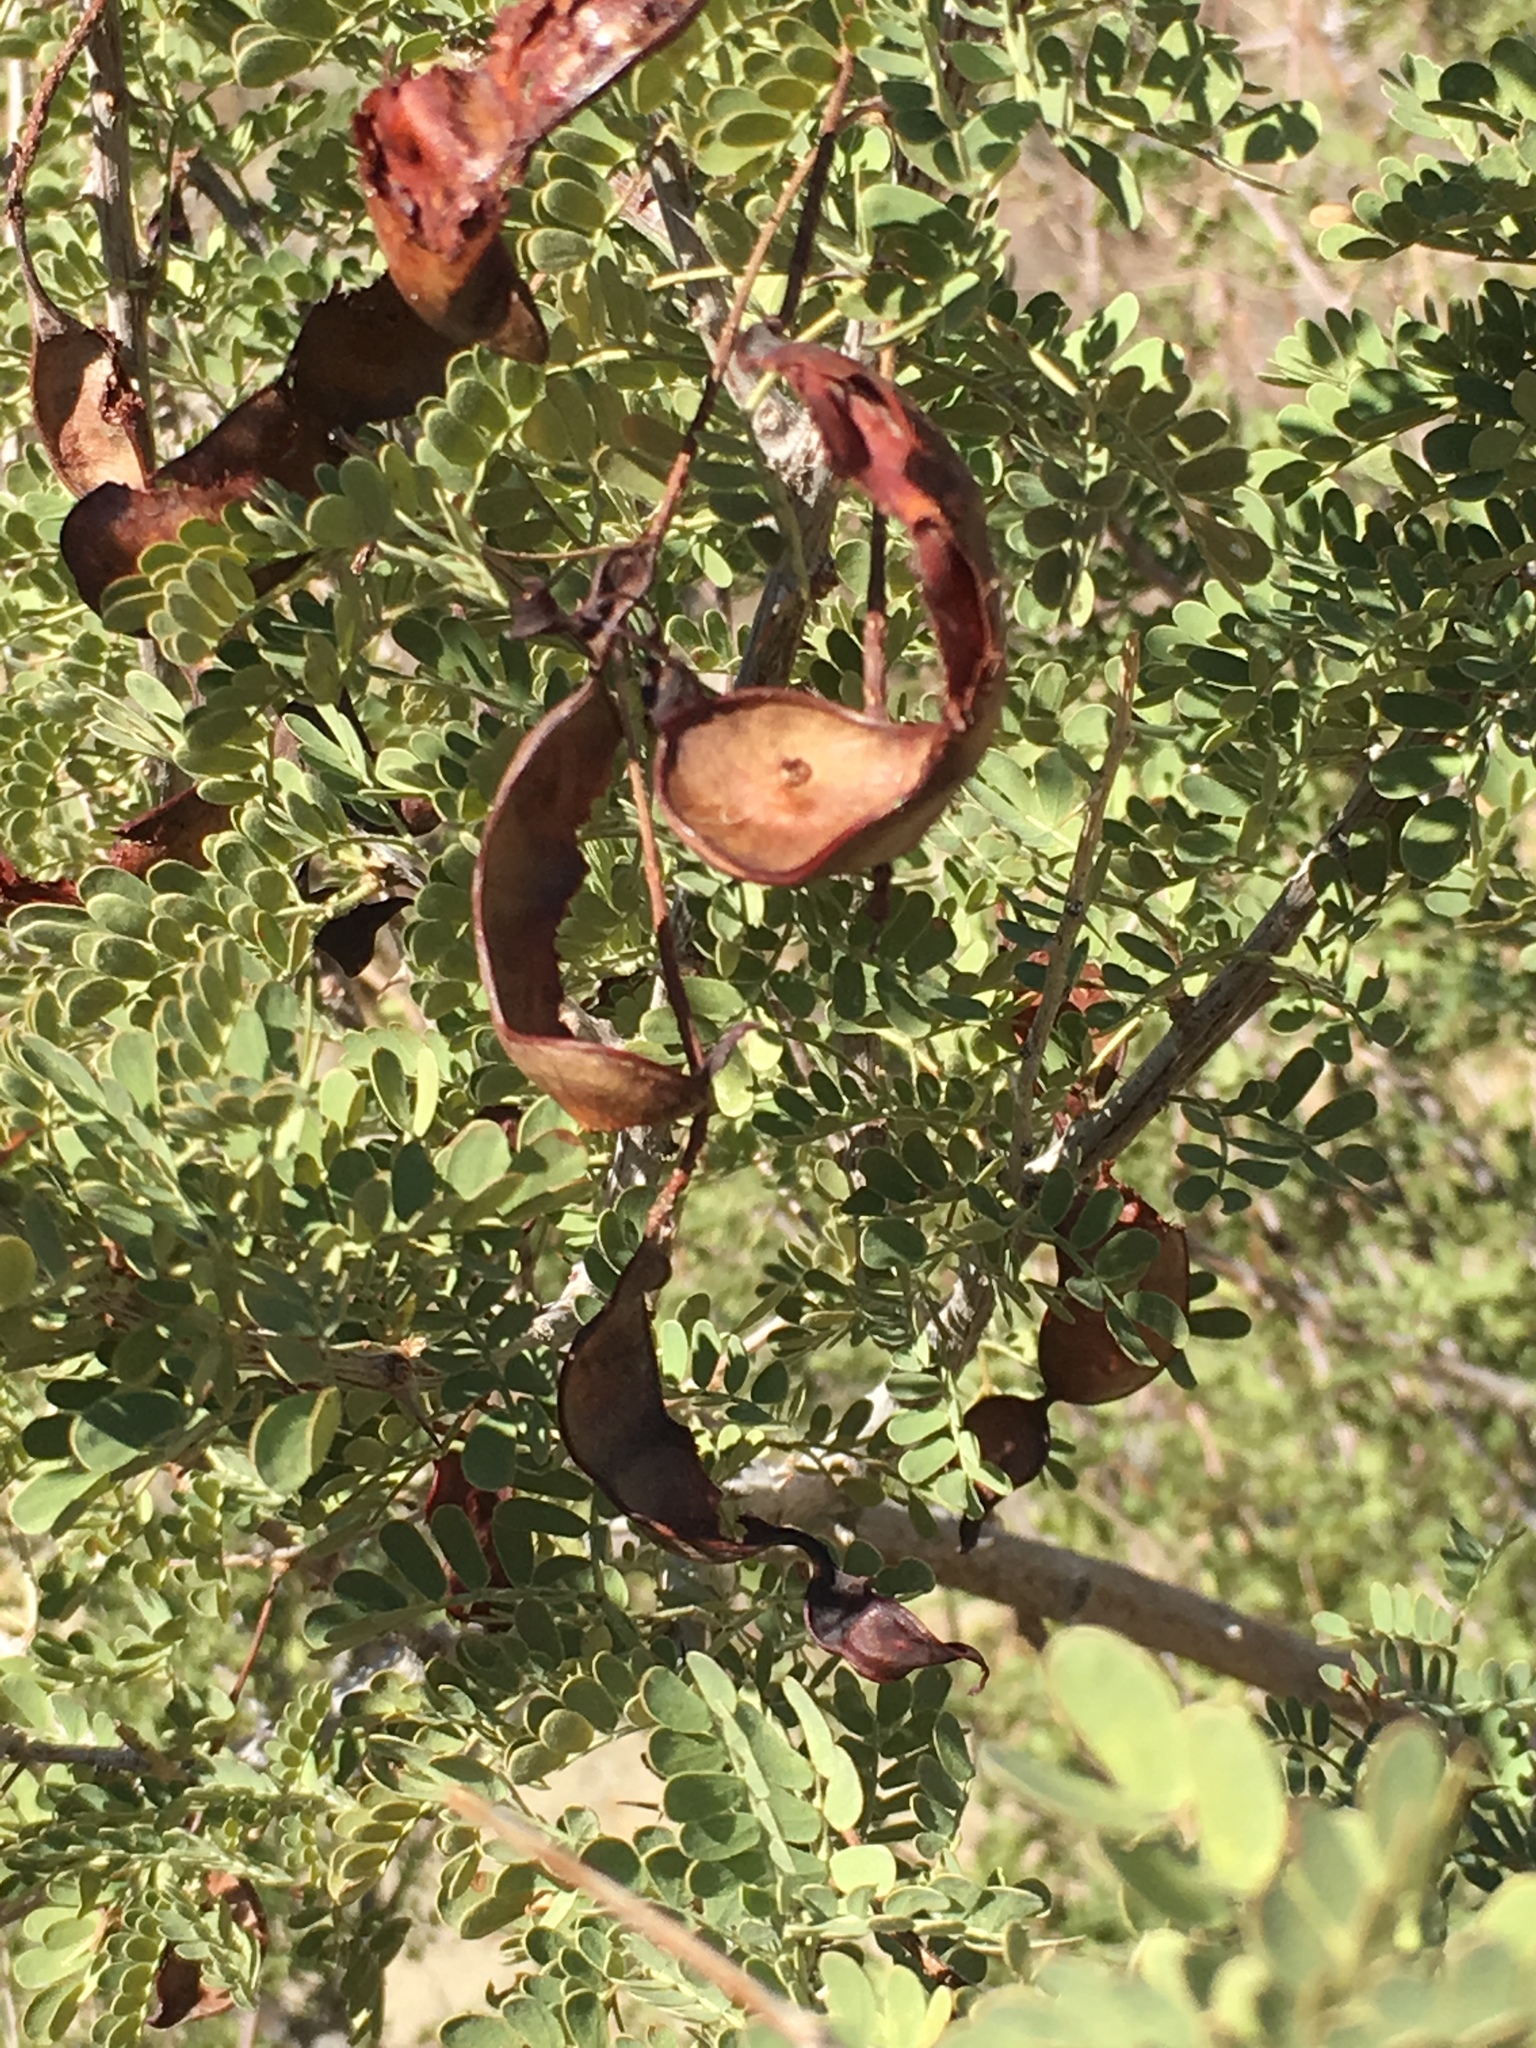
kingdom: Plantae
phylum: Tracheophyta
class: Magnoliopsida
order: Fabales
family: Fabaceae
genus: Senegalia
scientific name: Senegalia greggii
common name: Texas-mimosa
